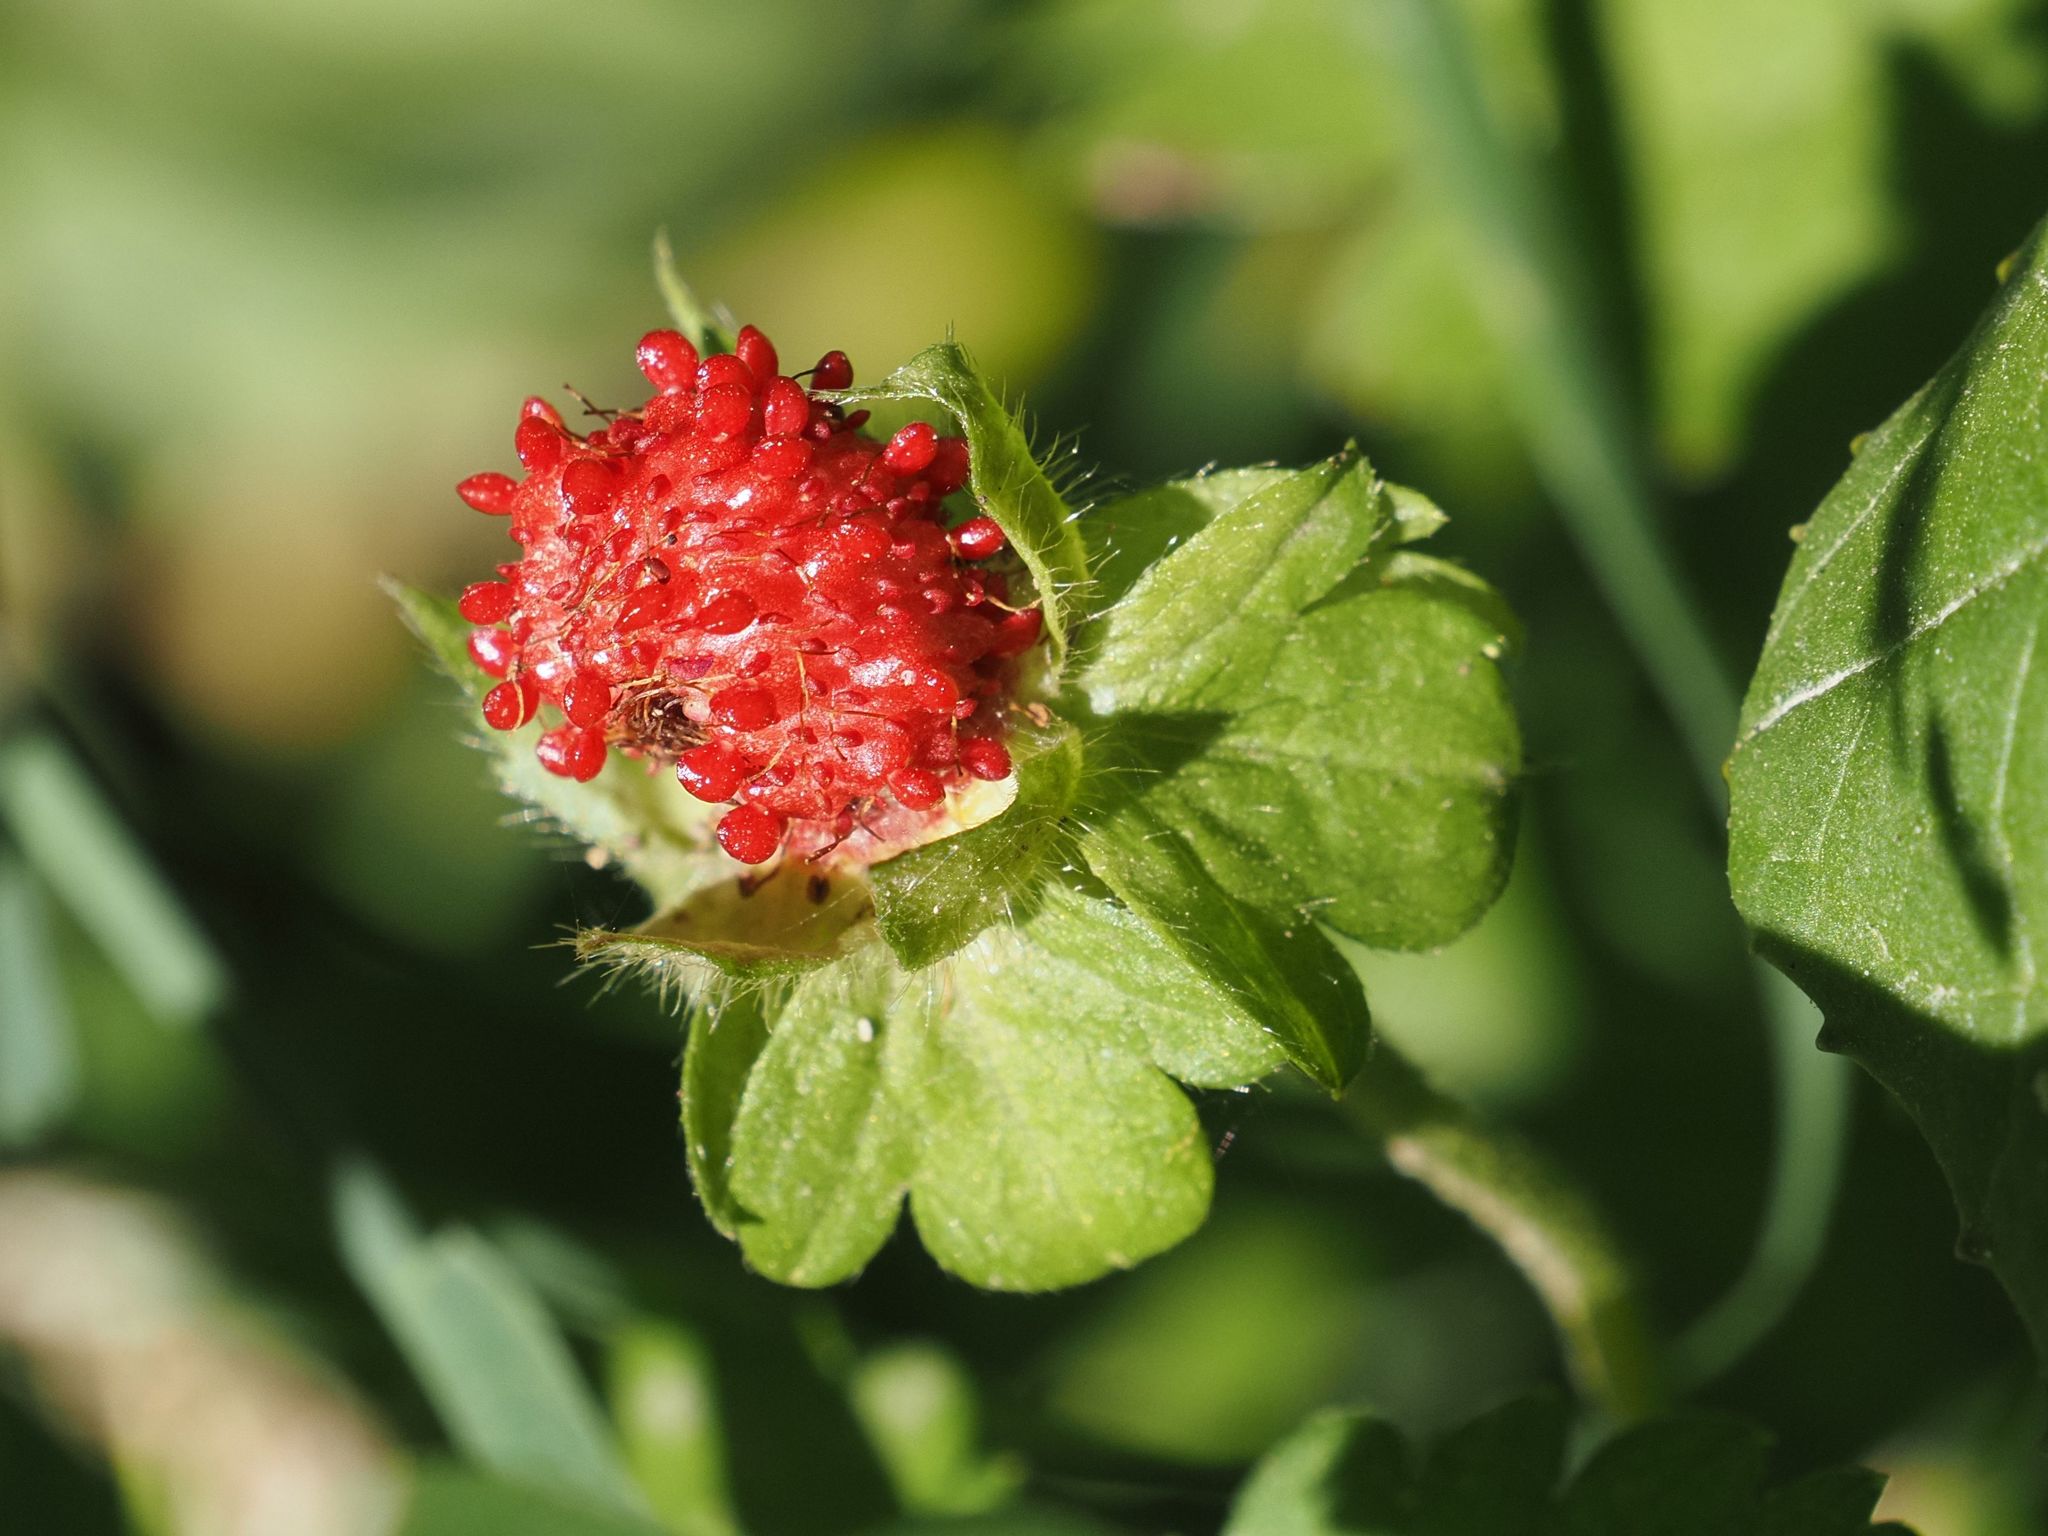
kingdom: Plantae
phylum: Tracheophyta
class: Magnoliopsida
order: Rosales
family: Rosaceae
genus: Potentilla
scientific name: Potentilla indica
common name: Yellow-flowered strawberry
